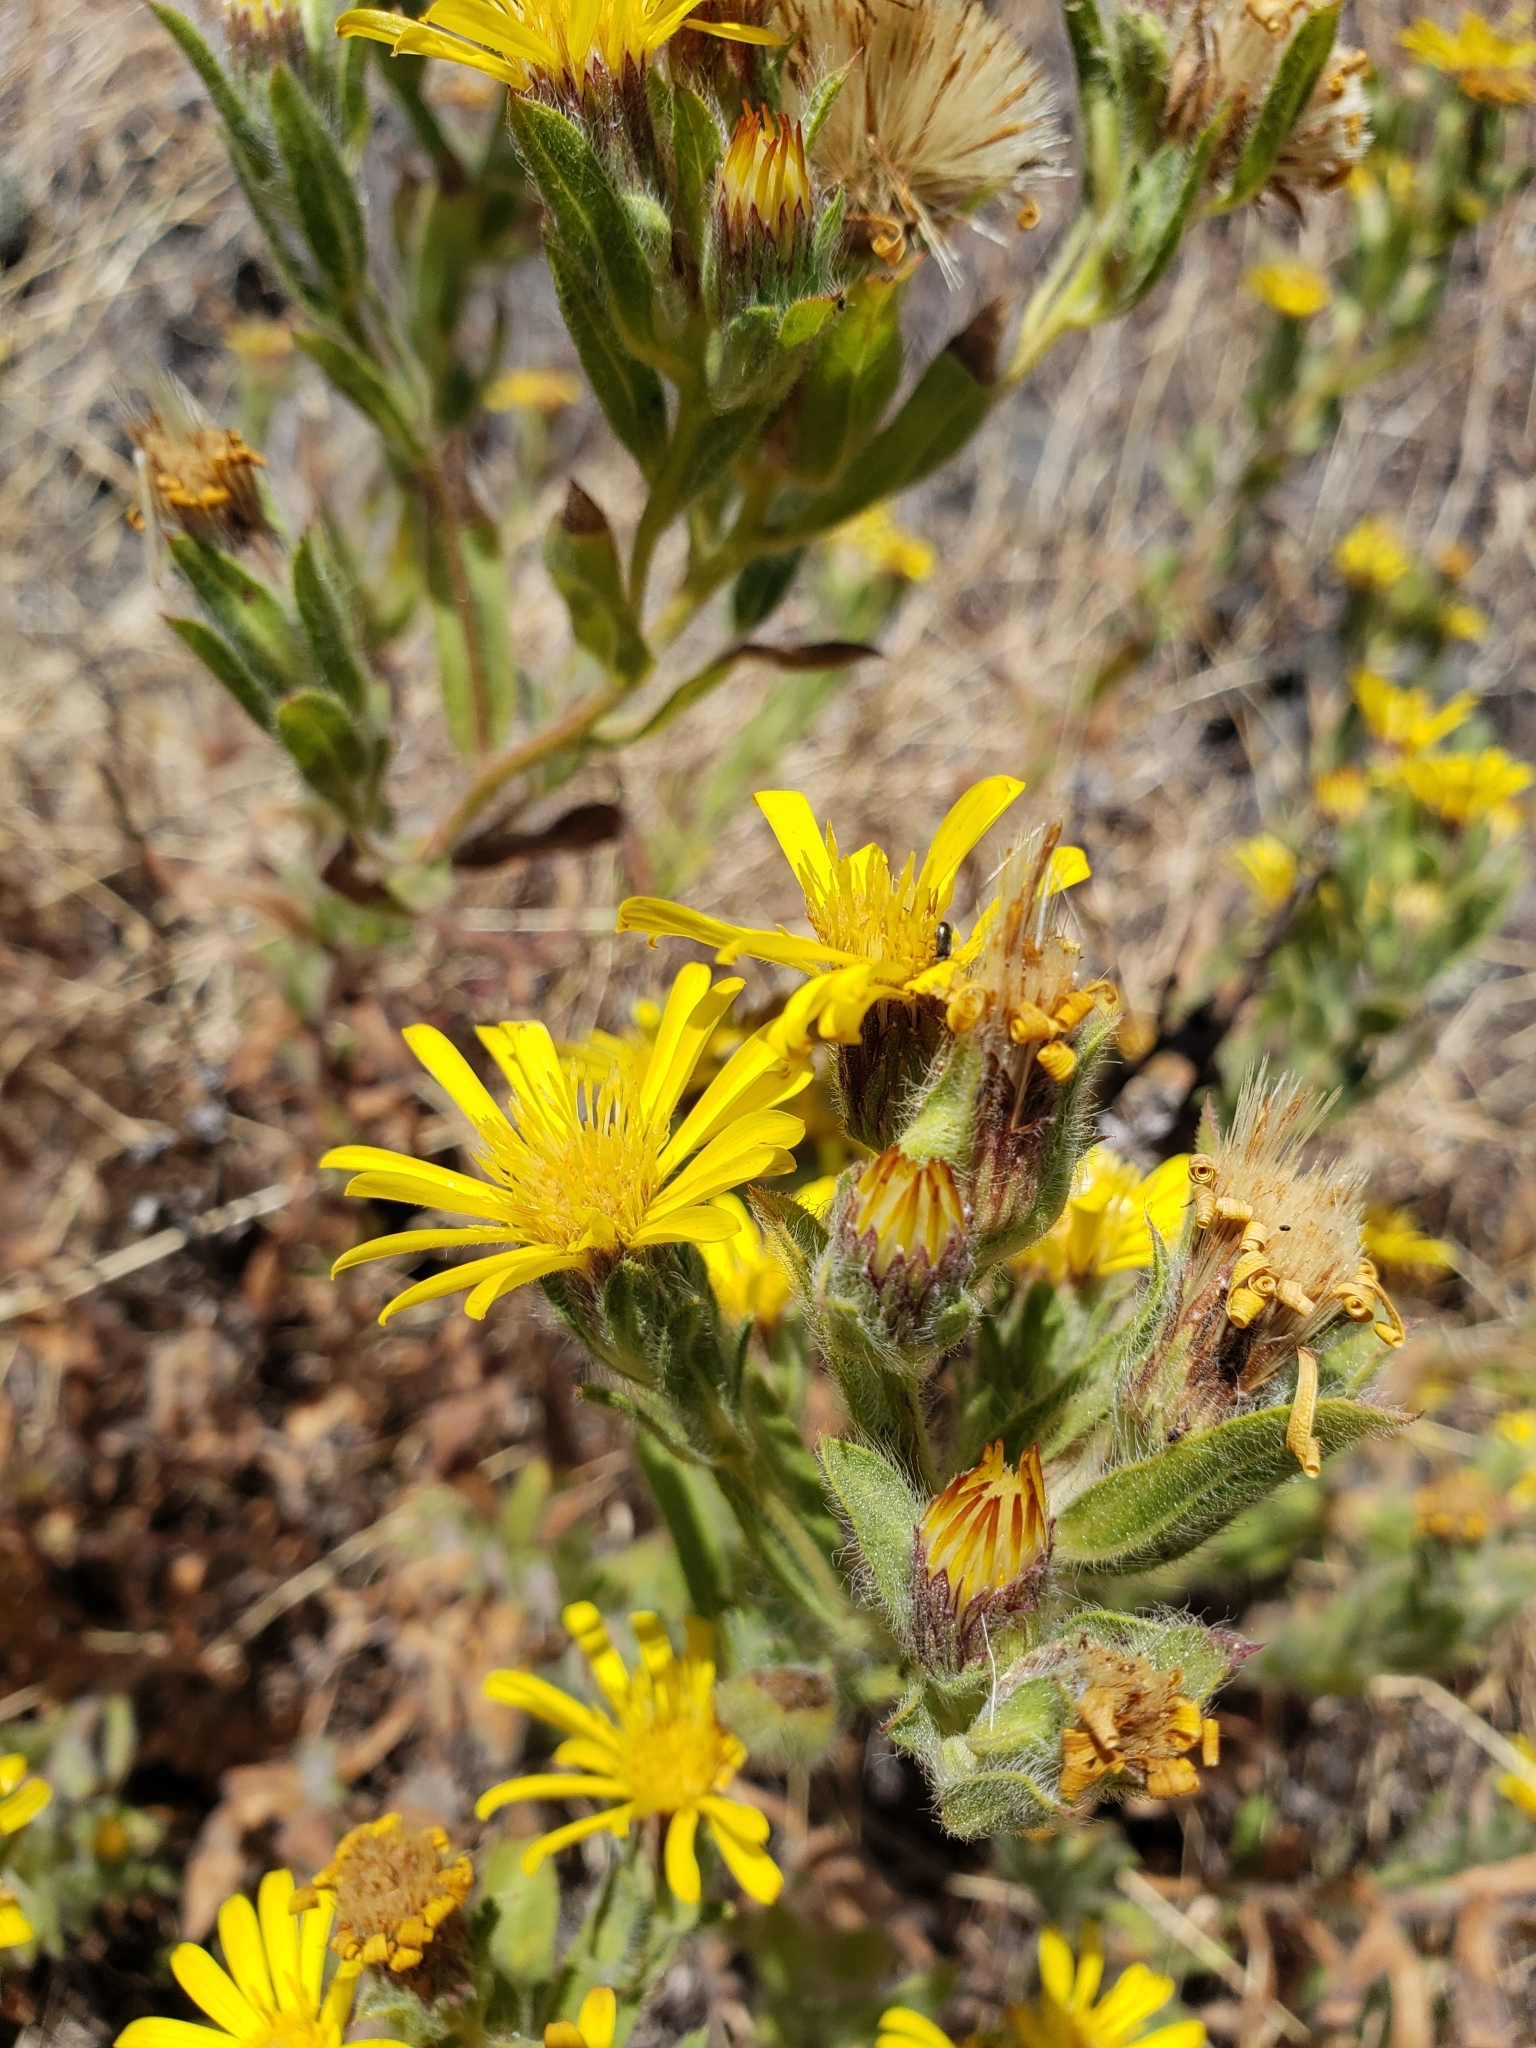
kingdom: Plantae
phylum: Tracheophyta
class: Magnoliopsida
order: Asterales
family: Asteraceae
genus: Heterotheca
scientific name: Heterotheca sessiliflora
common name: Sessile-flower golden-aster
